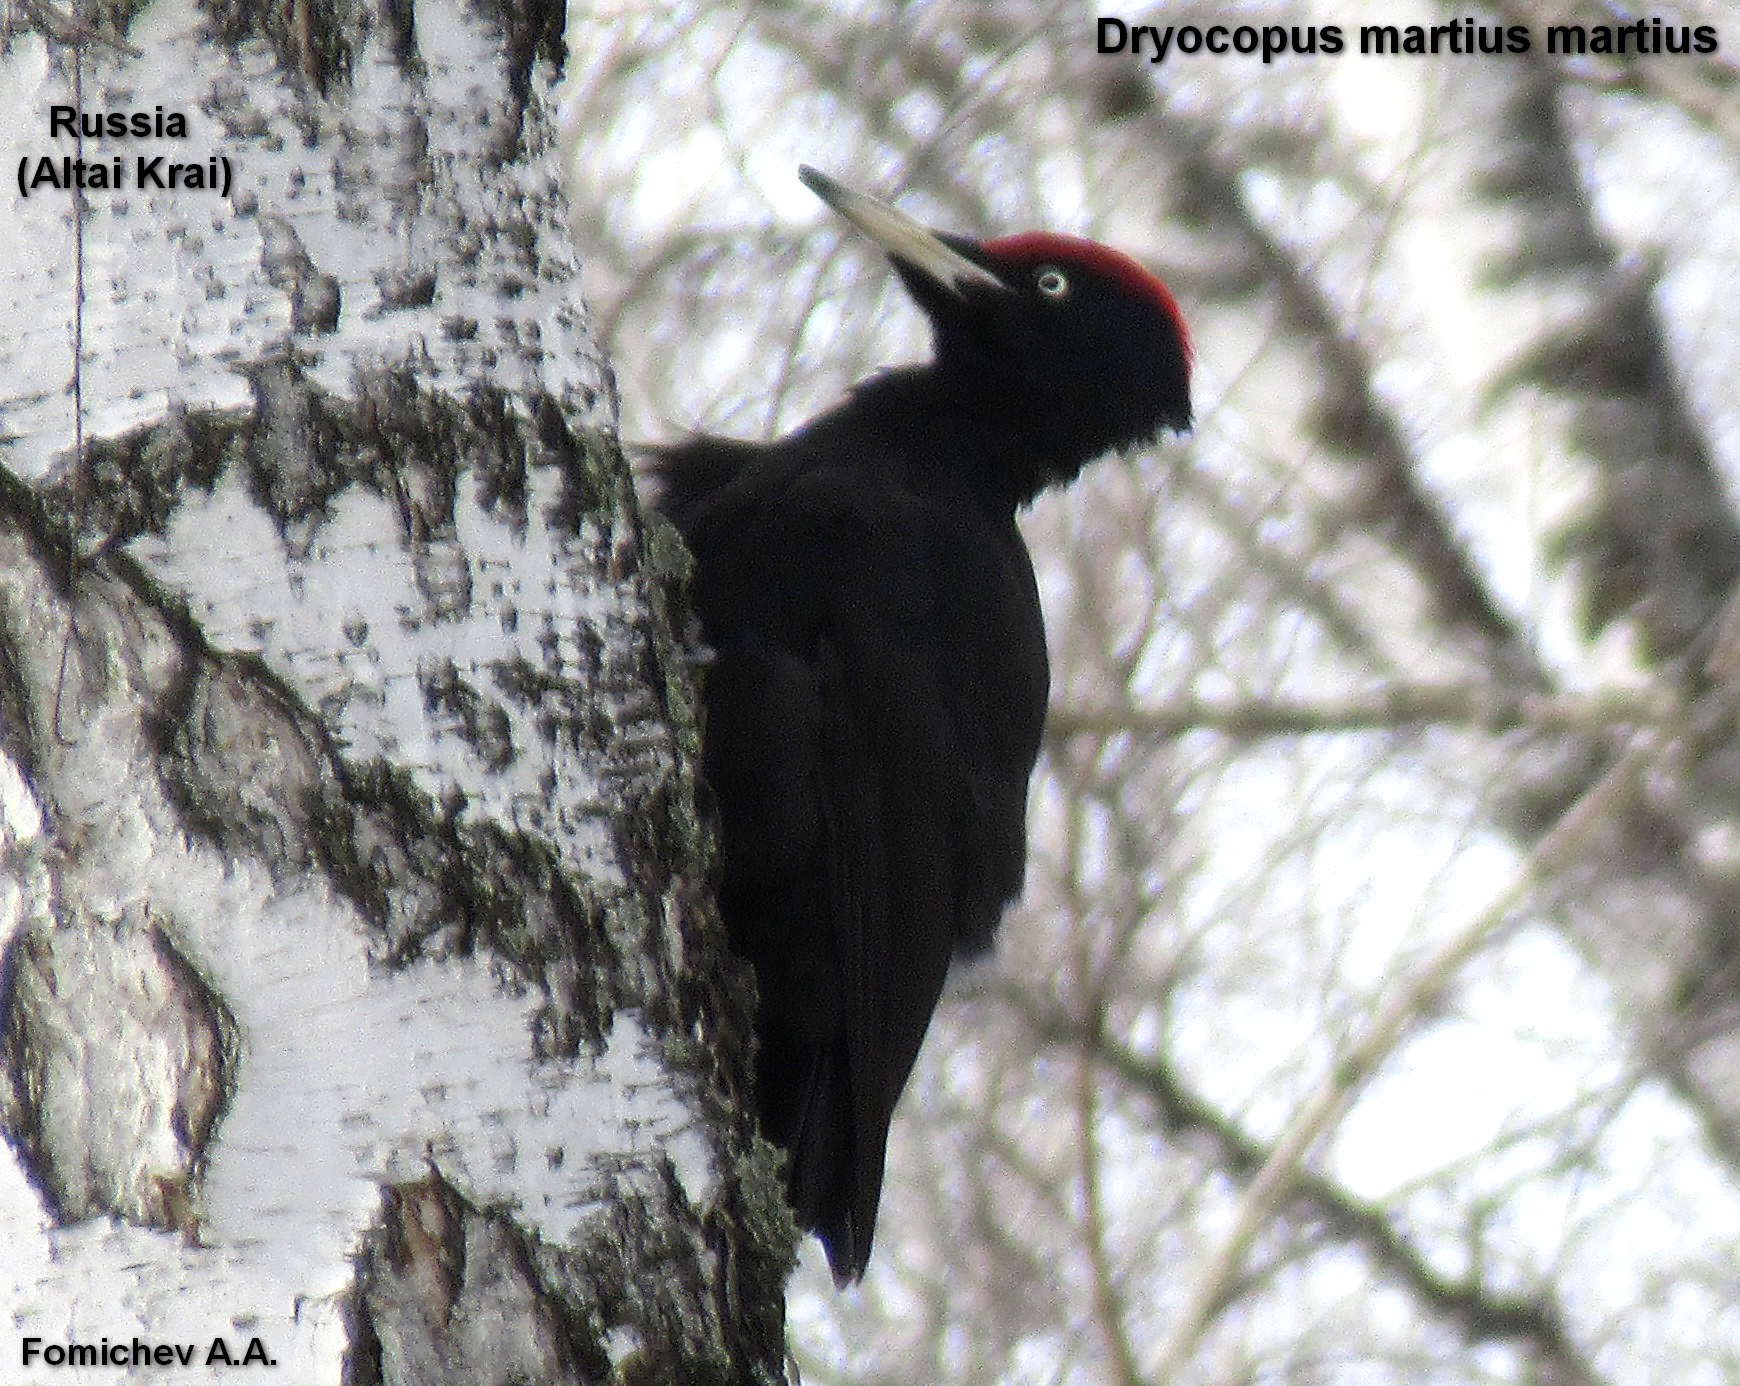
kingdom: Animalia
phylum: Chordata
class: Aves
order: Piciformes
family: Picidae
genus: Dryocopus
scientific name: Dryocopus martius
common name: Black woodpecker
